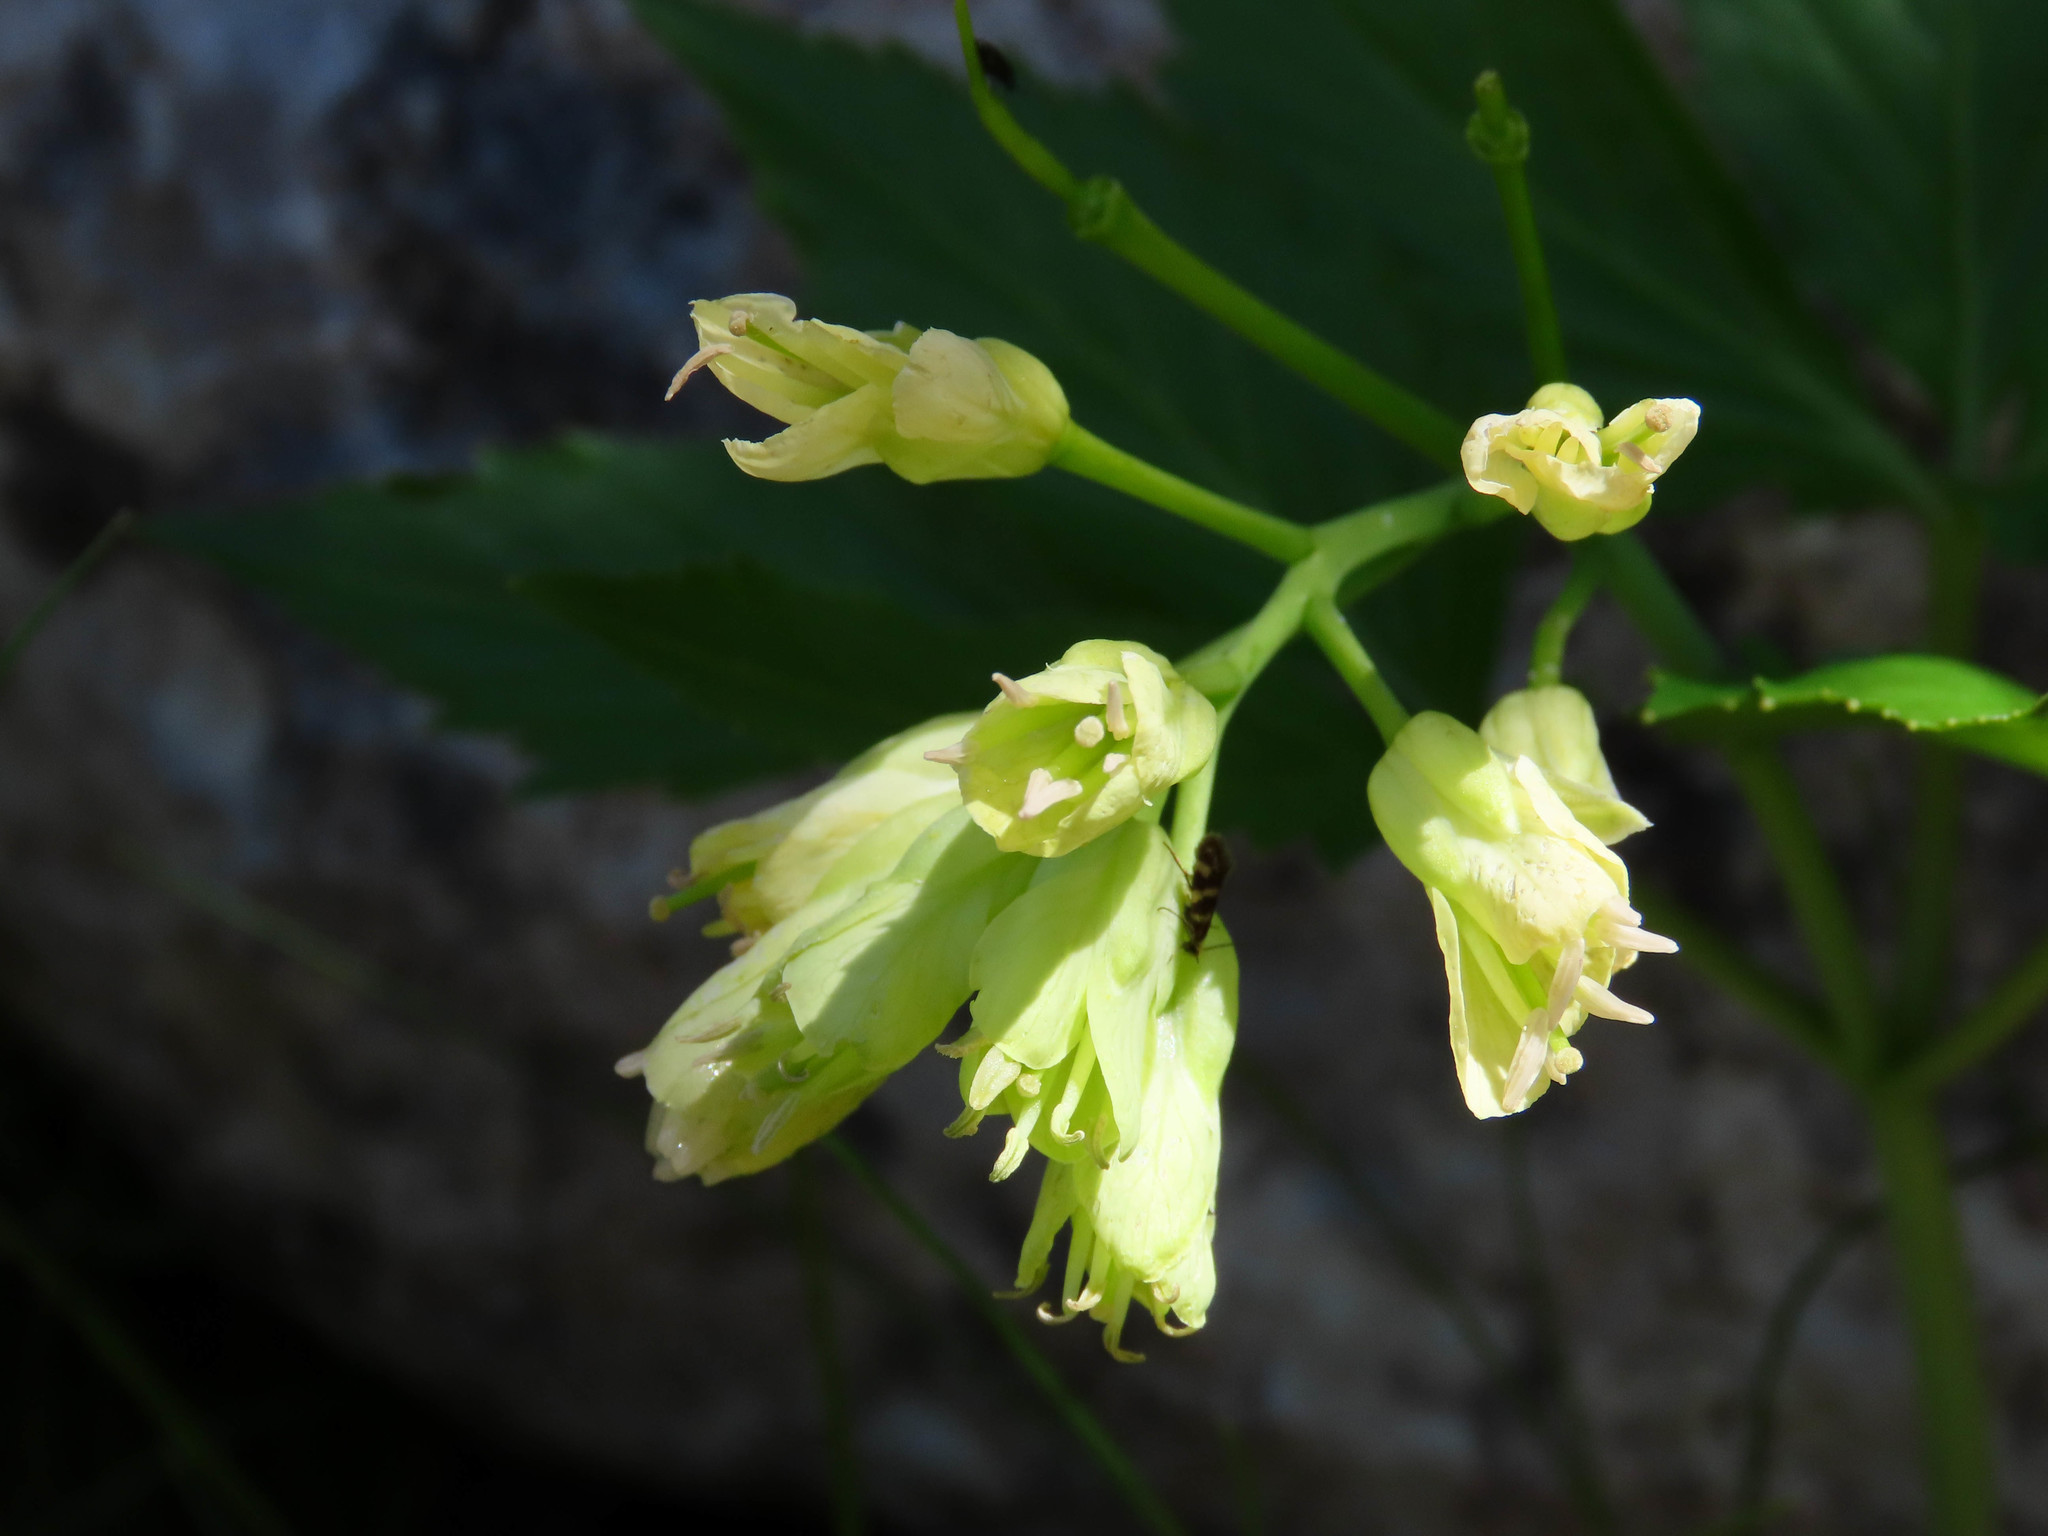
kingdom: Plantae
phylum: Tracheophyta
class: Magnoliopsida
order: Brassicales
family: Brassicaceae
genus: Cardamine
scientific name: Cardamine enneaphyllos
